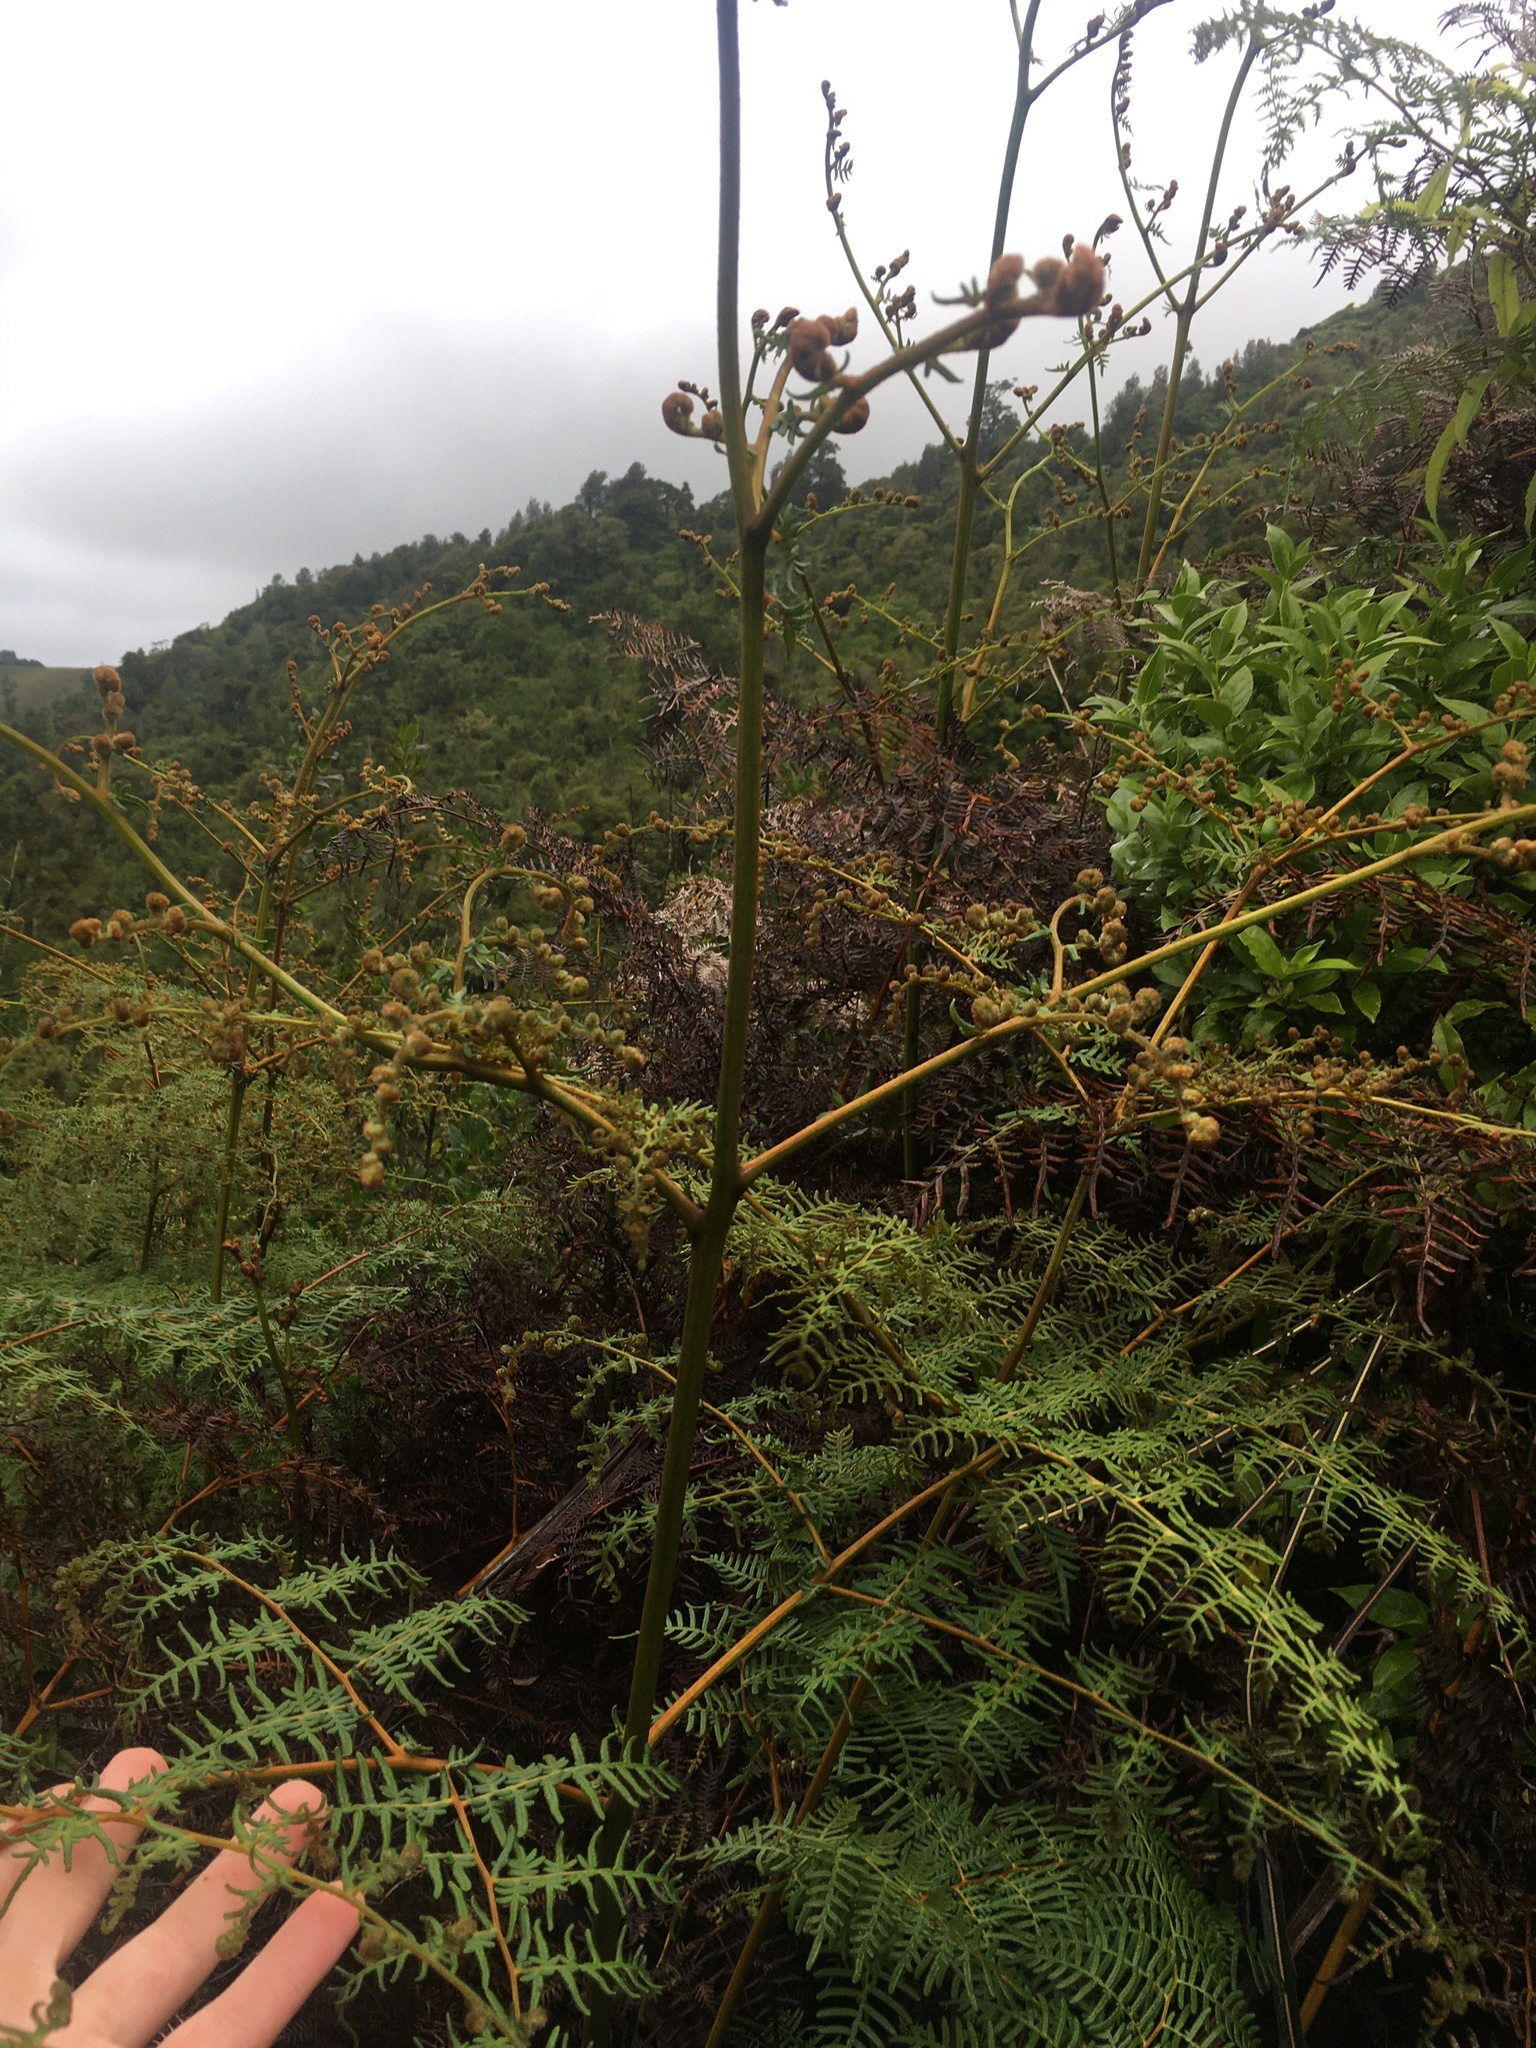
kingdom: Plantae
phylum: Tracheophyta
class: Polypodiopsida
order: Polypodiales
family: Dennstaedtiaceae
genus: Pteridium
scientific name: Pteridium esculentum
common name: Bracken fern
